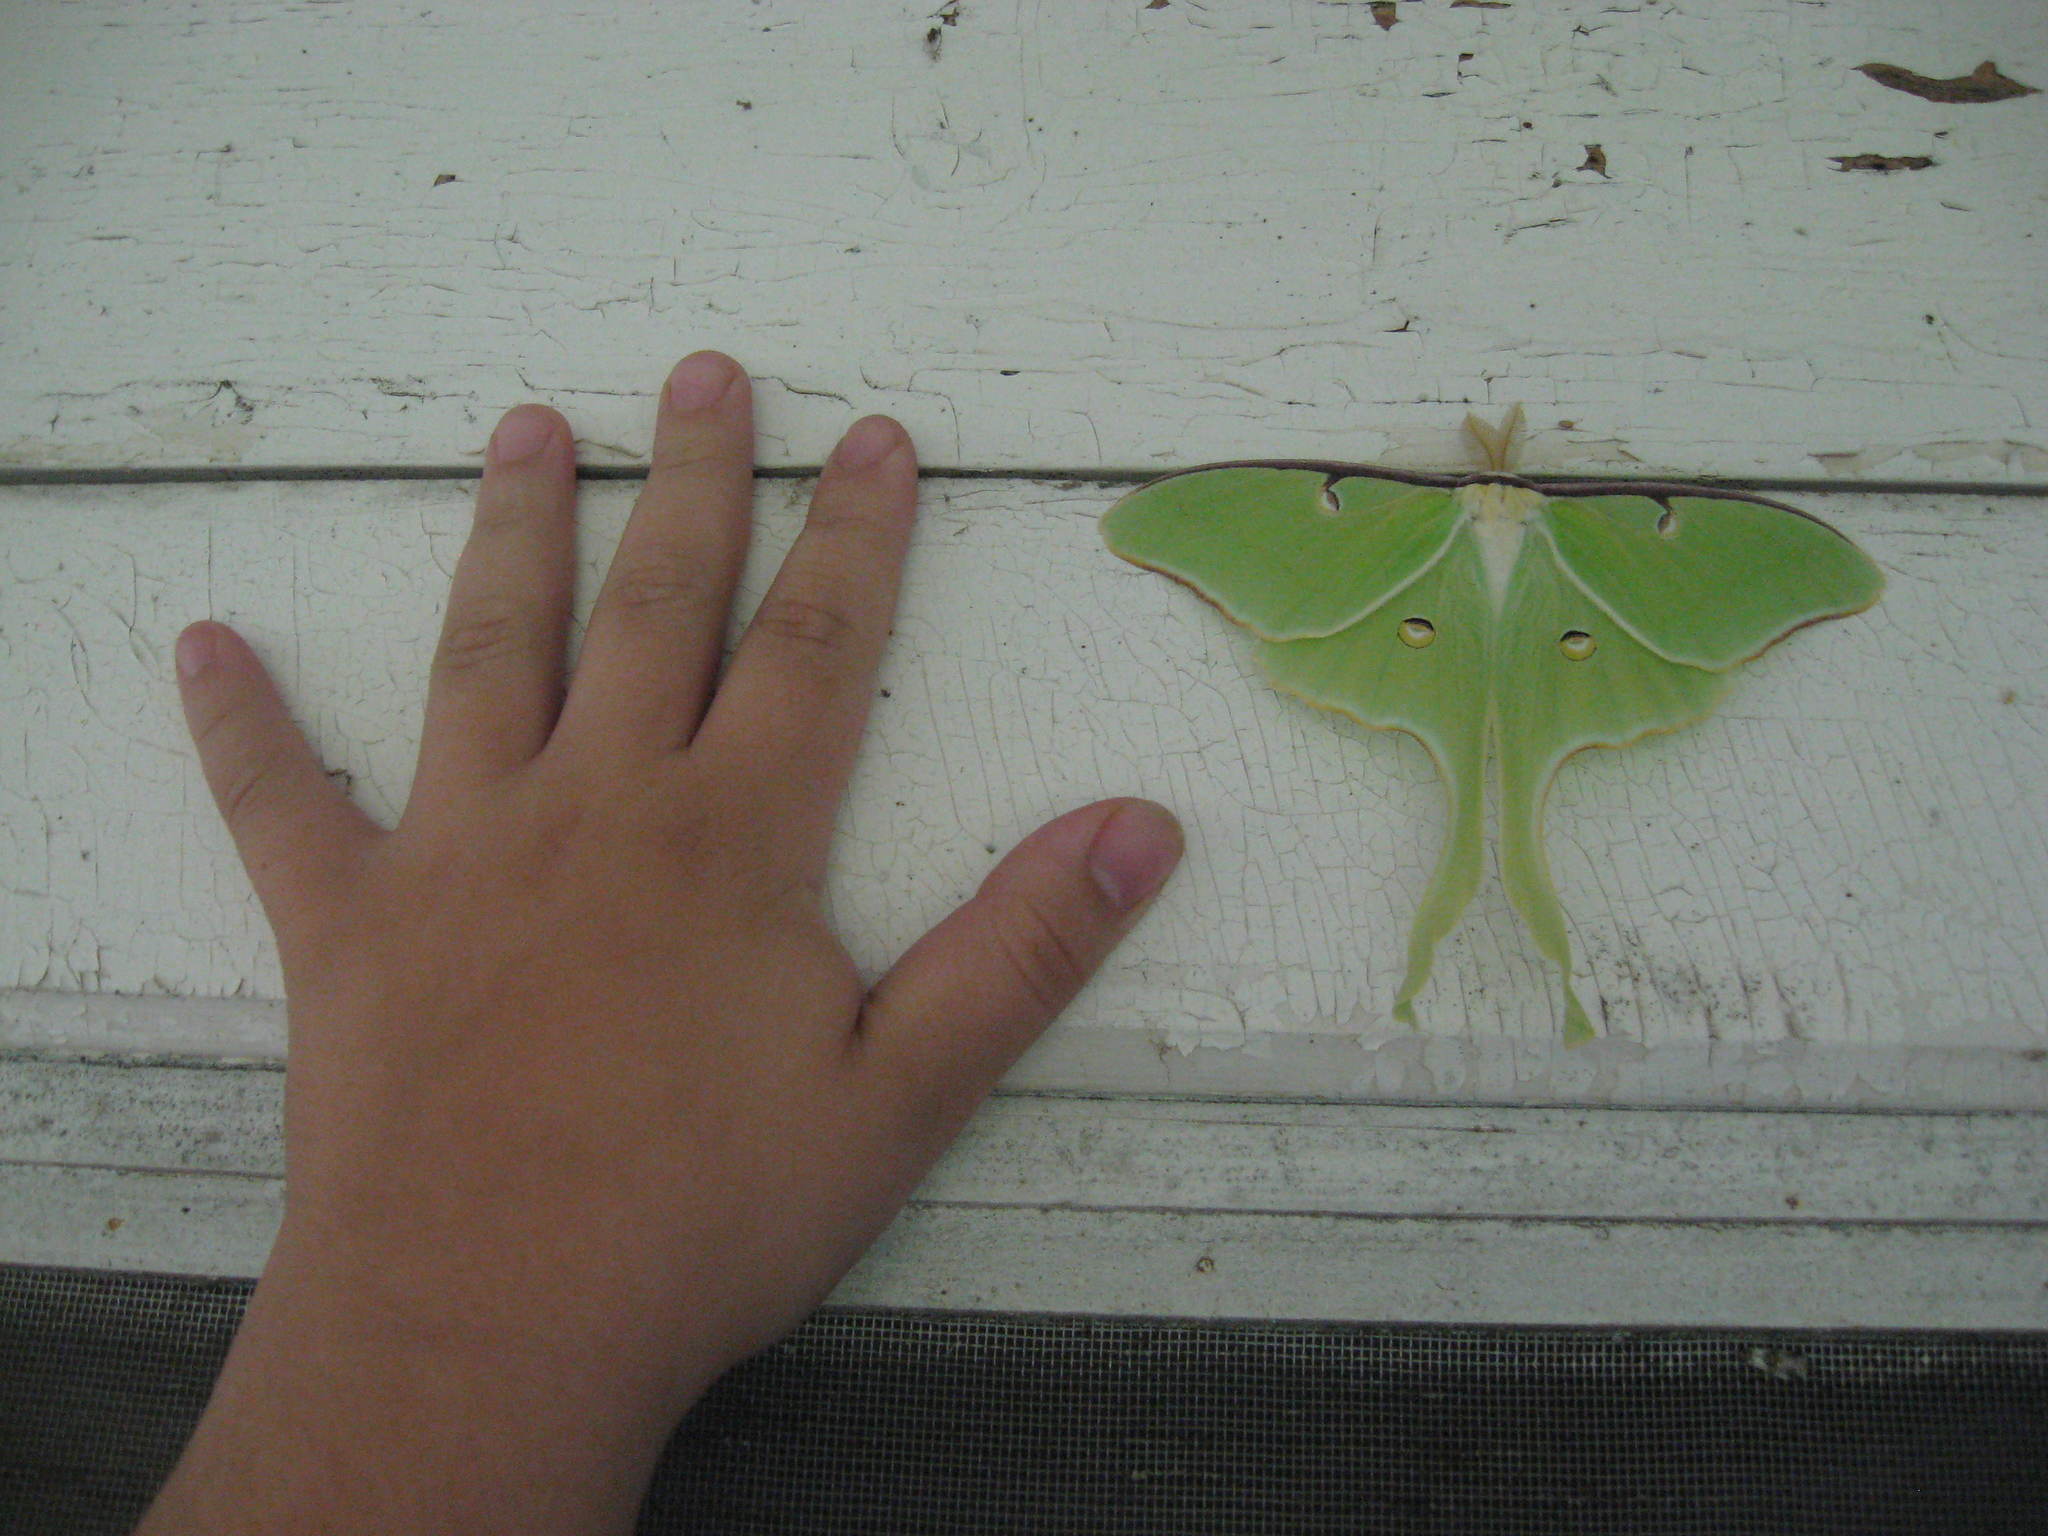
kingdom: Animalia
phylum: Arthropoda
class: Insecta
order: Lepidoptera
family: Saturniidae
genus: Actias
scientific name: Actias luna
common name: Luna moth
